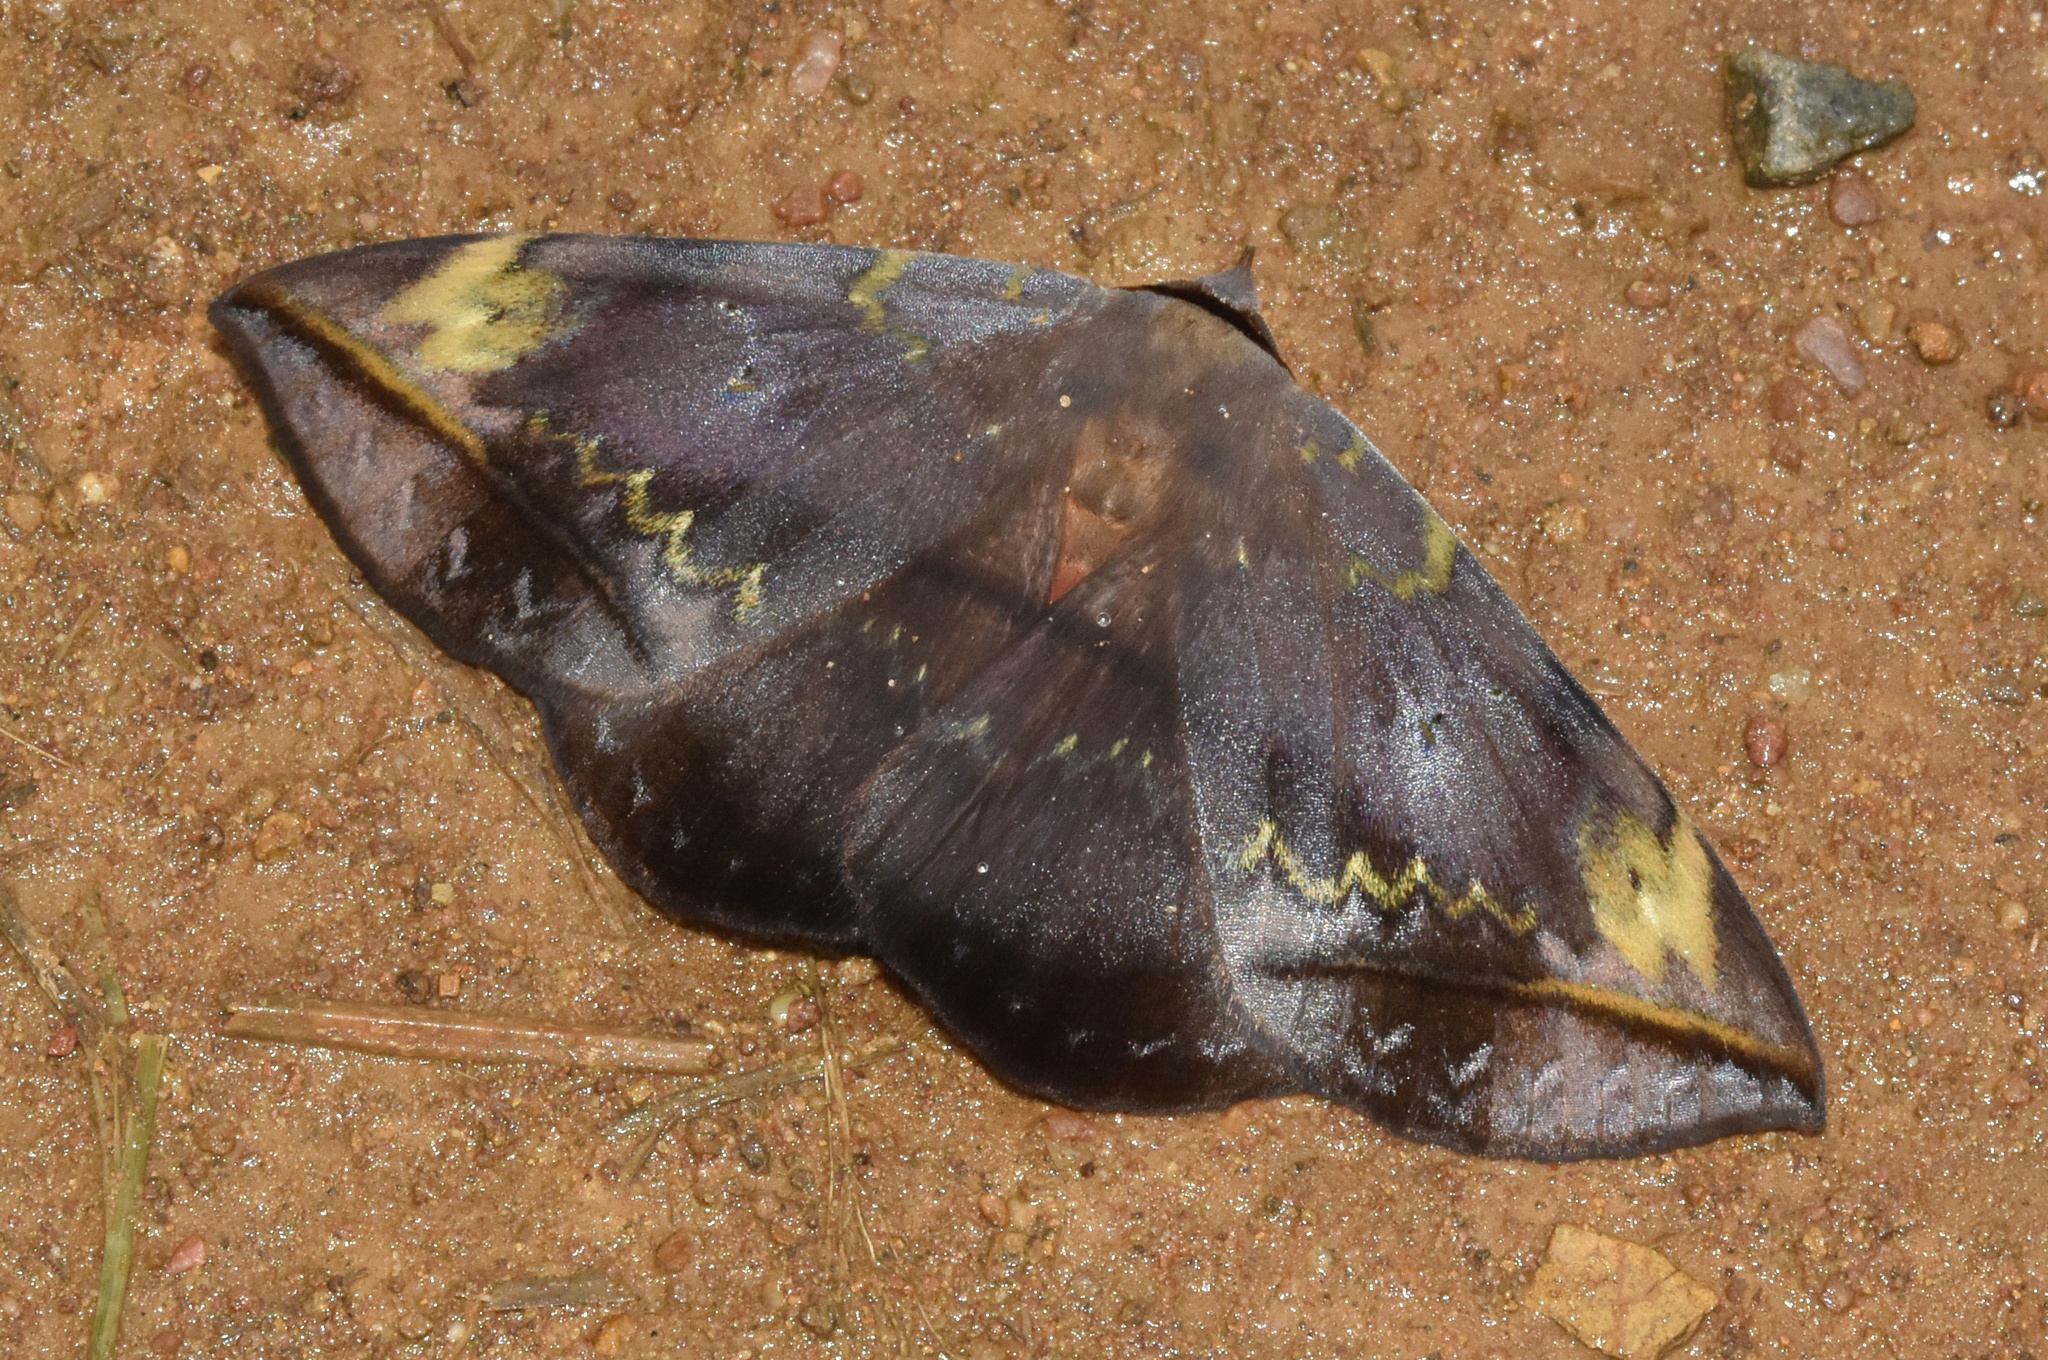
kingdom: Animalia
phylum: Arthropoda
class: Insecta
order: Lepidoptera
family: Erebidae
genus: Hypopyra
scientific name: Hypopyra capensis
